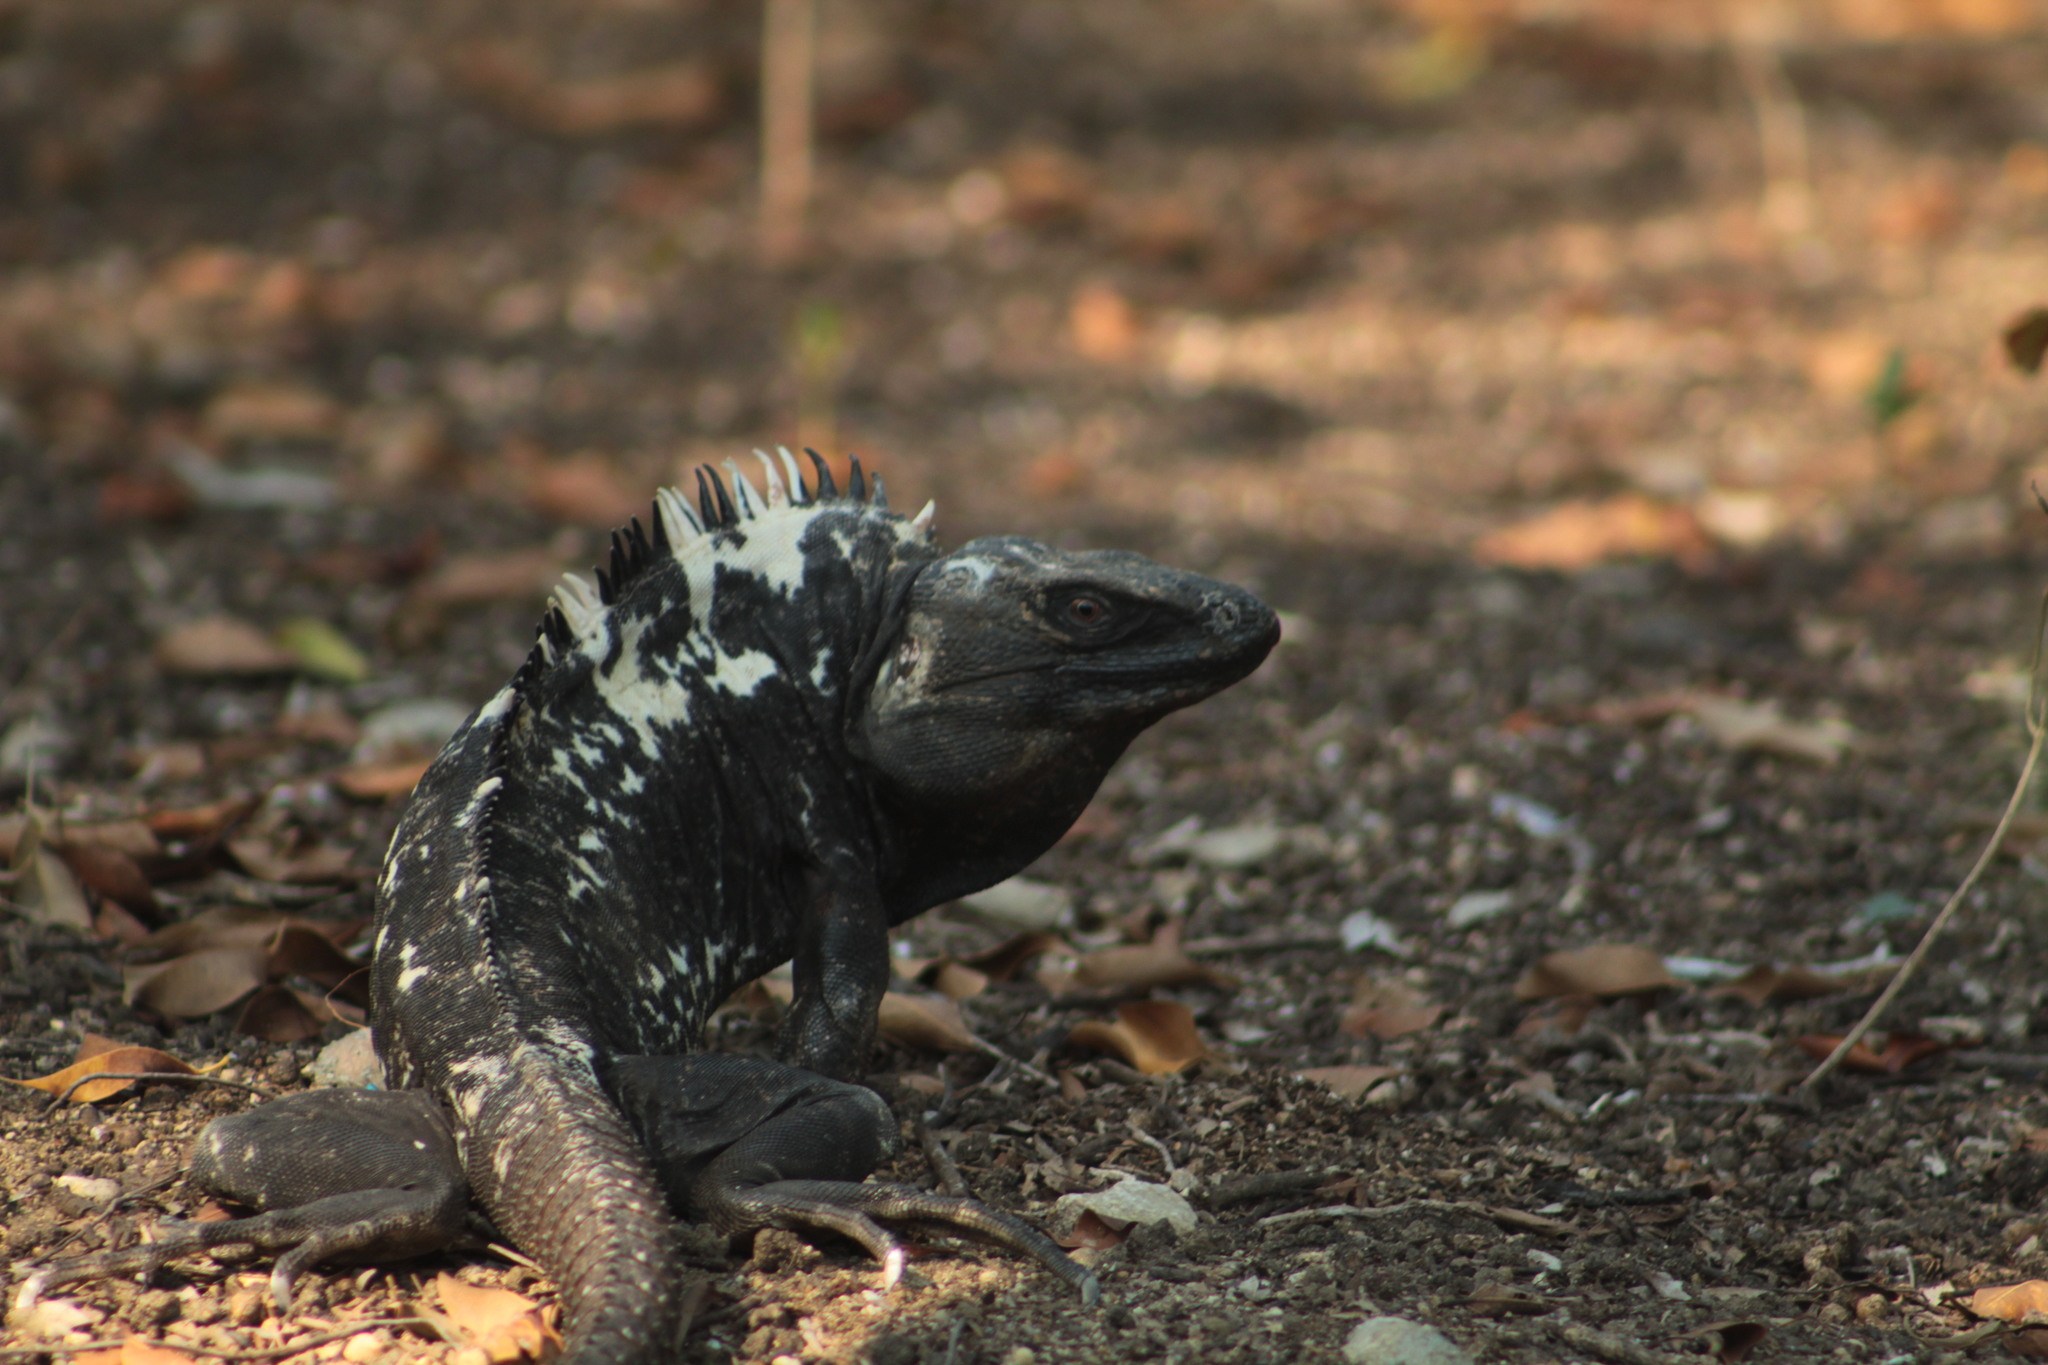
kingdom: Animalia
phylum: Chordata
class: Squamata
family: Iguanidae
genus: Ctenosaura
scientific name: Ctenosaura pectinata
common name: Guerreran spiny-tailed iguana
